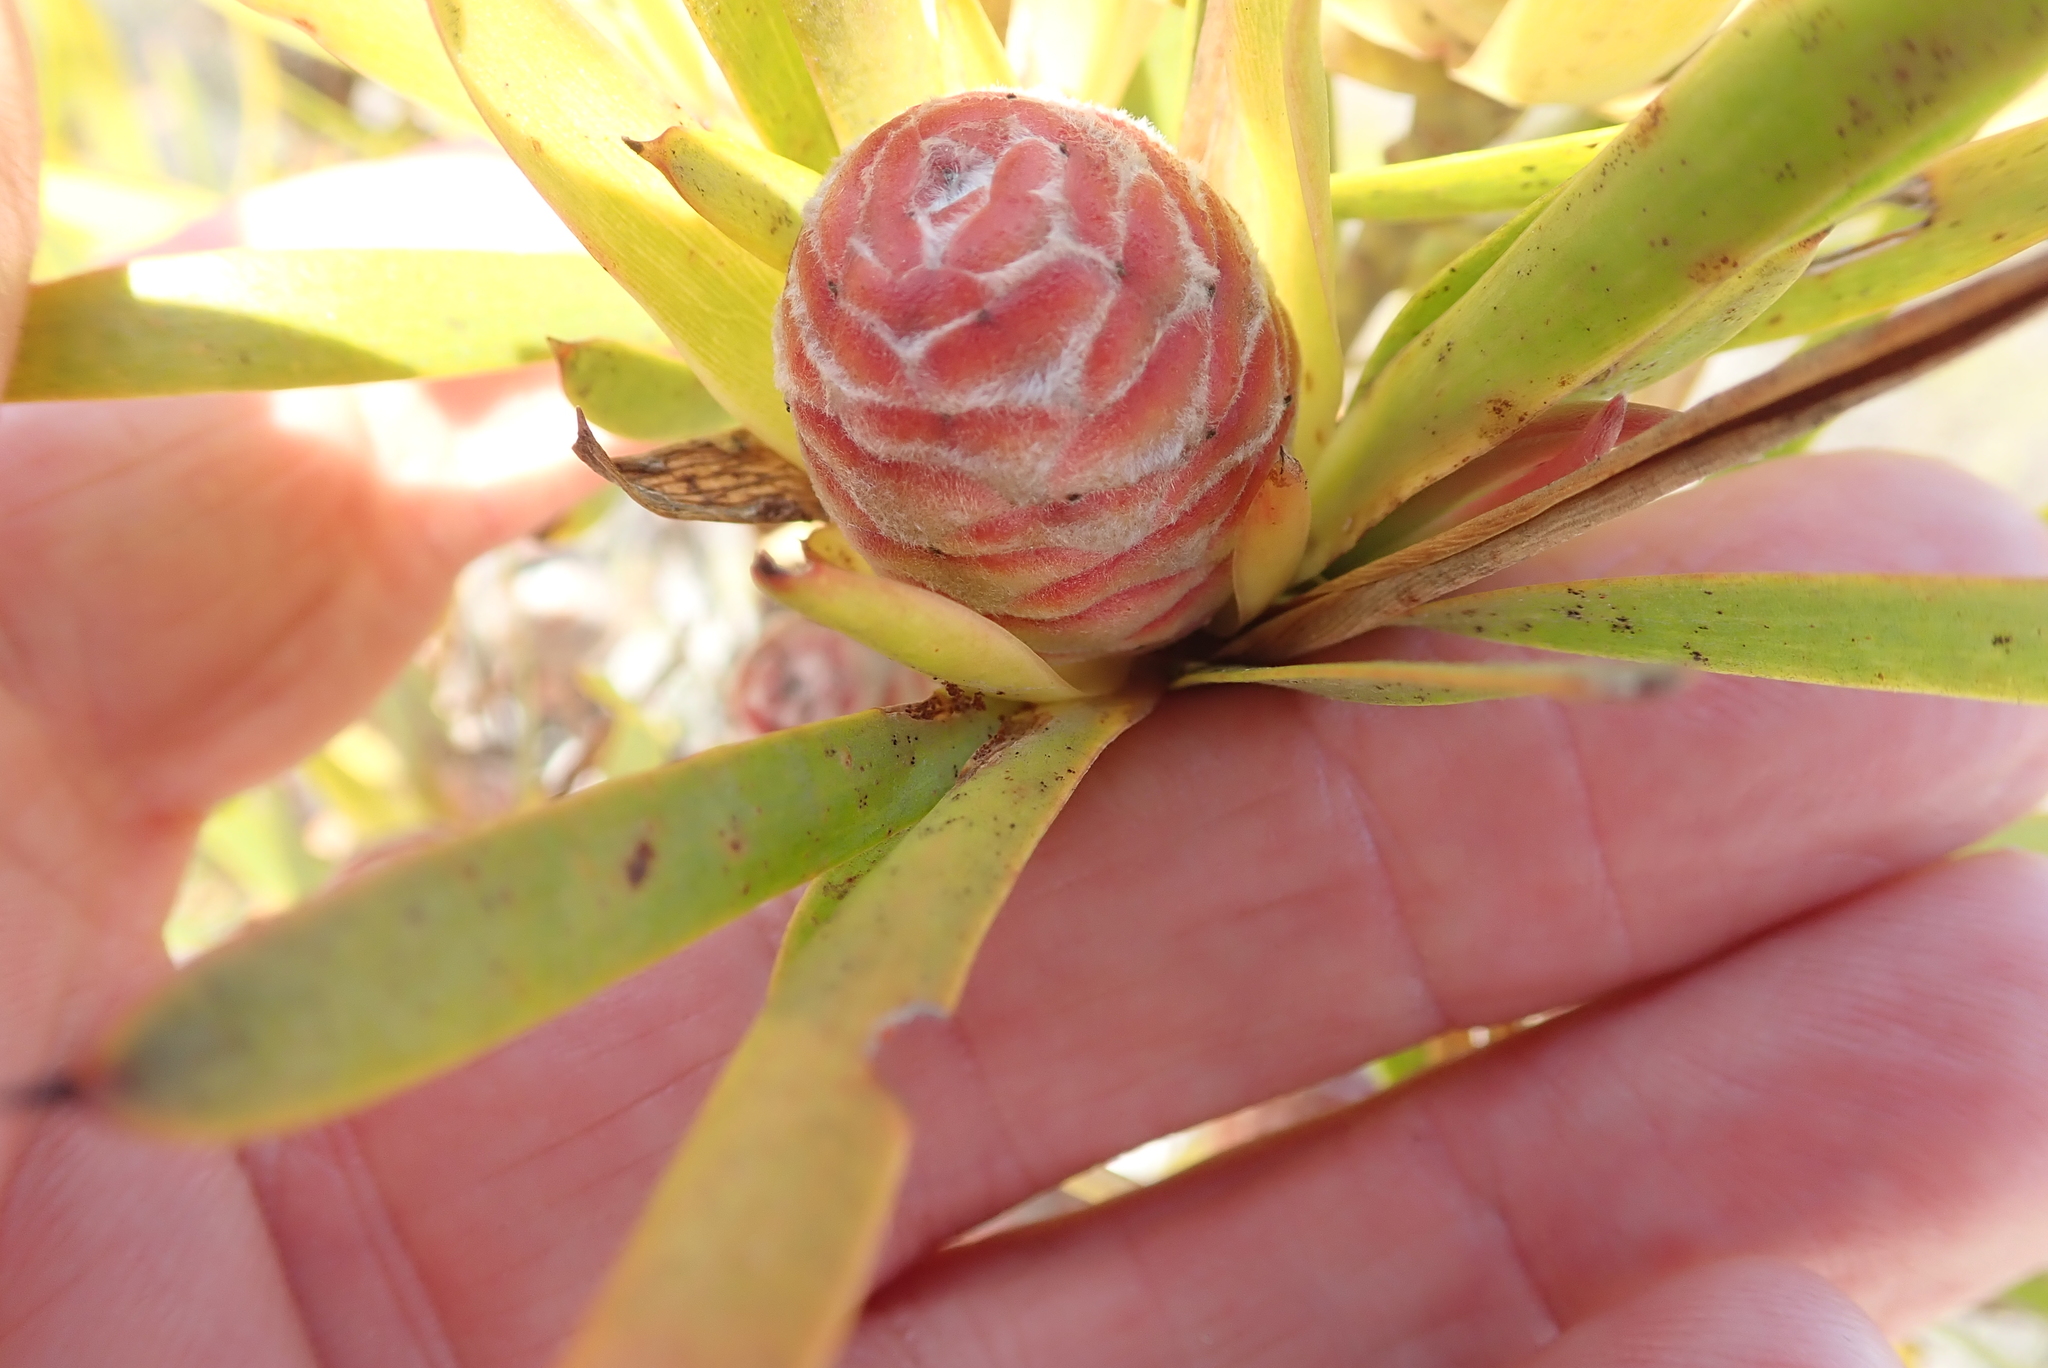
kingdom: Plantae
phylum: Tracheophyta
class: Magnoliopsida
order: Proteales
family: Proteaceae
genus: Leucadendron
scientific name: Leucadendron xanthoconus
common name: Sickle-leaf conebush
